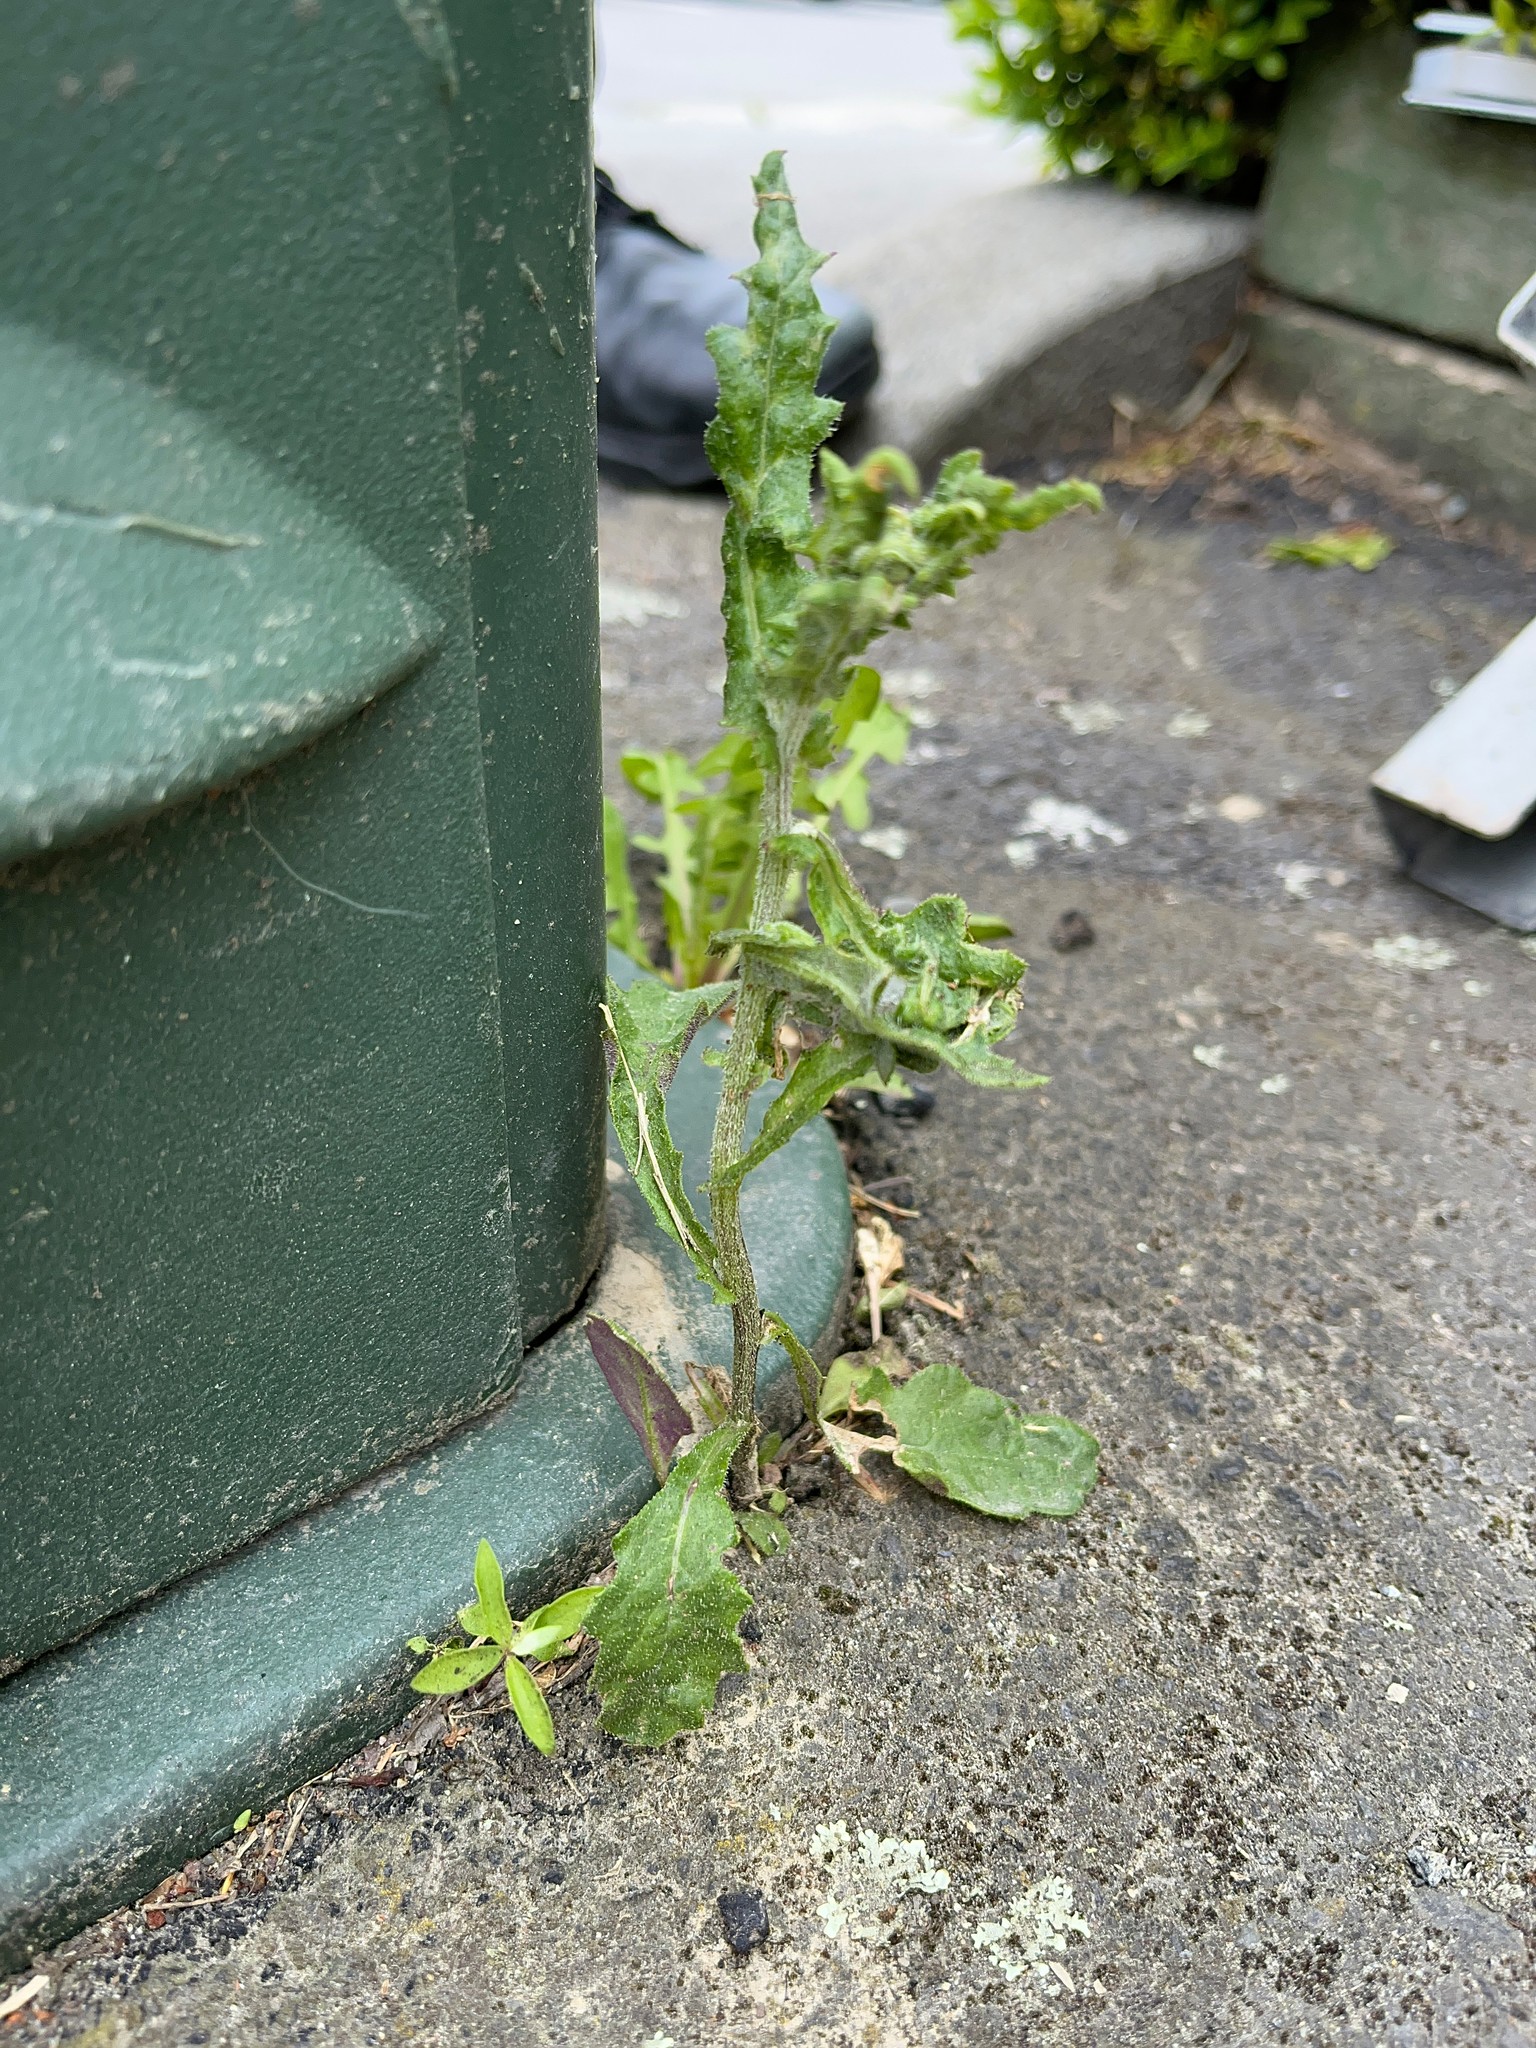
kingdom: Plantae
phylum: Tracheophyta
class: Magnoliopsida
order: Asterales
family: Asteraceae
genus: Senecio
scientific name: Senecio glomeratus
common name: Cutleaf burnweed
